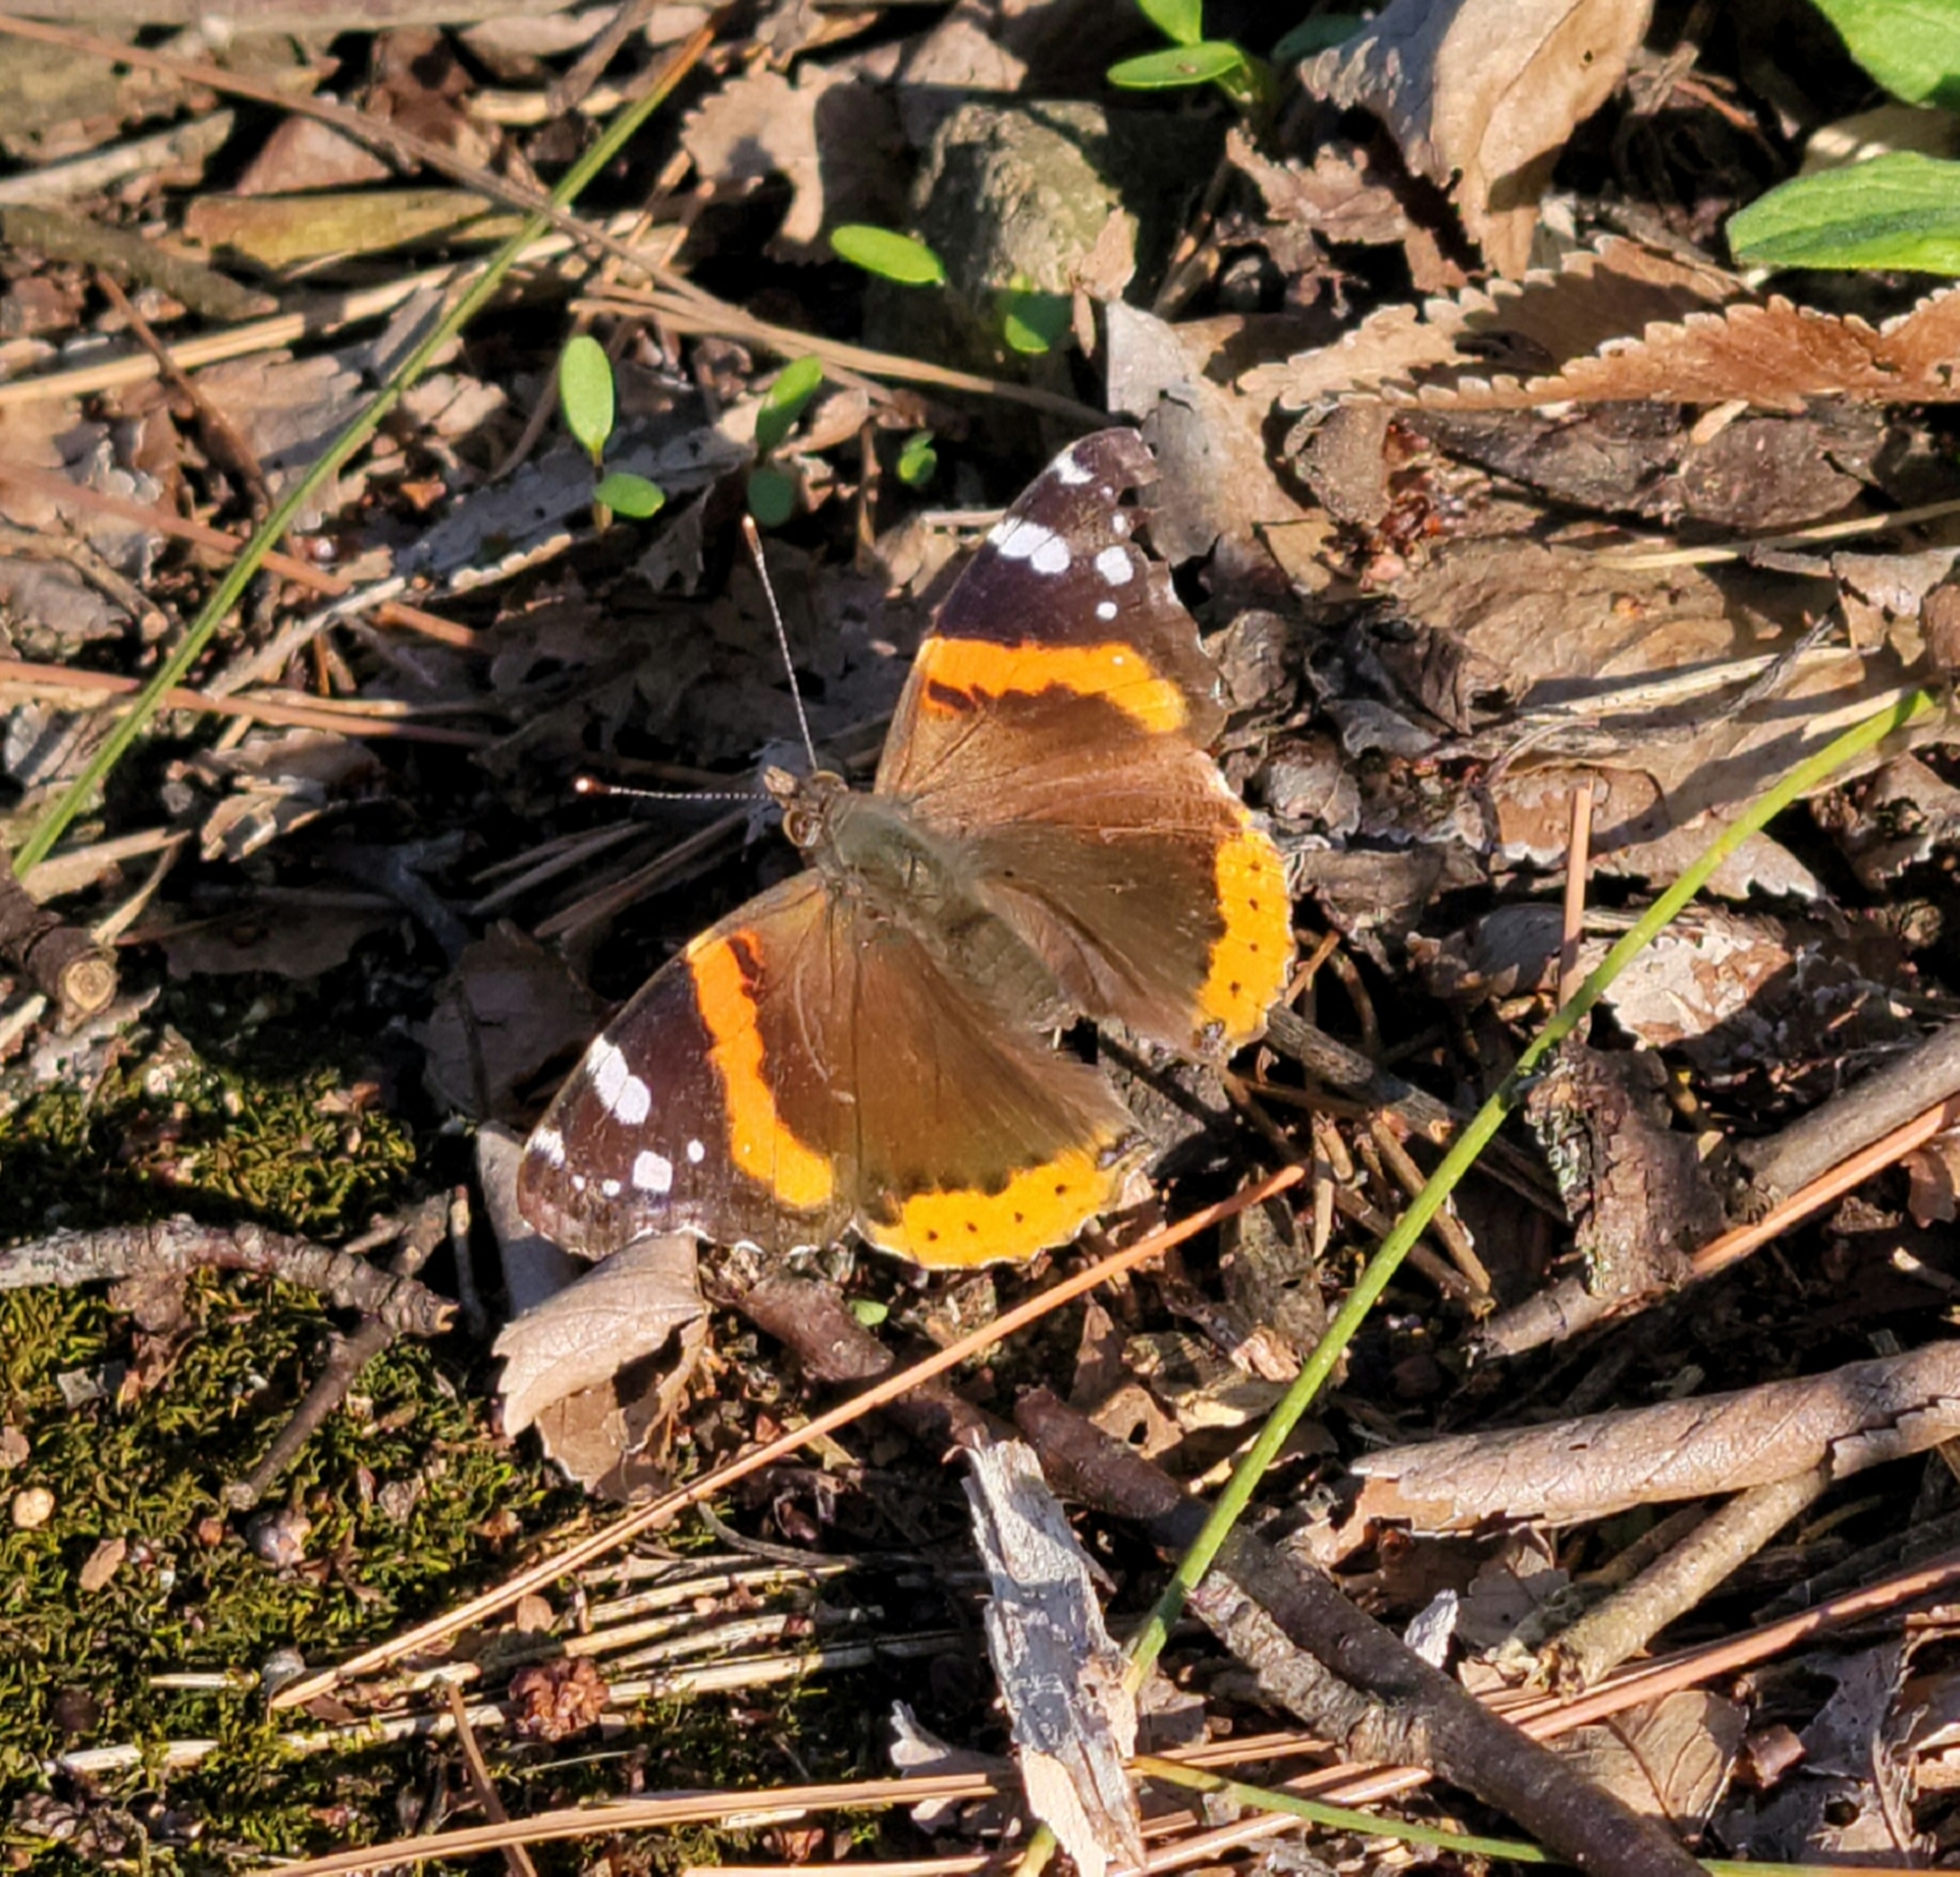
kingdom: Animalia
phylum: Arthropoda
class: Insecta
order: Lepidoptera
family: Nymphalidae
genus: Vanessa
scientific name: Vanessa atalanta
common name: Red admiral
